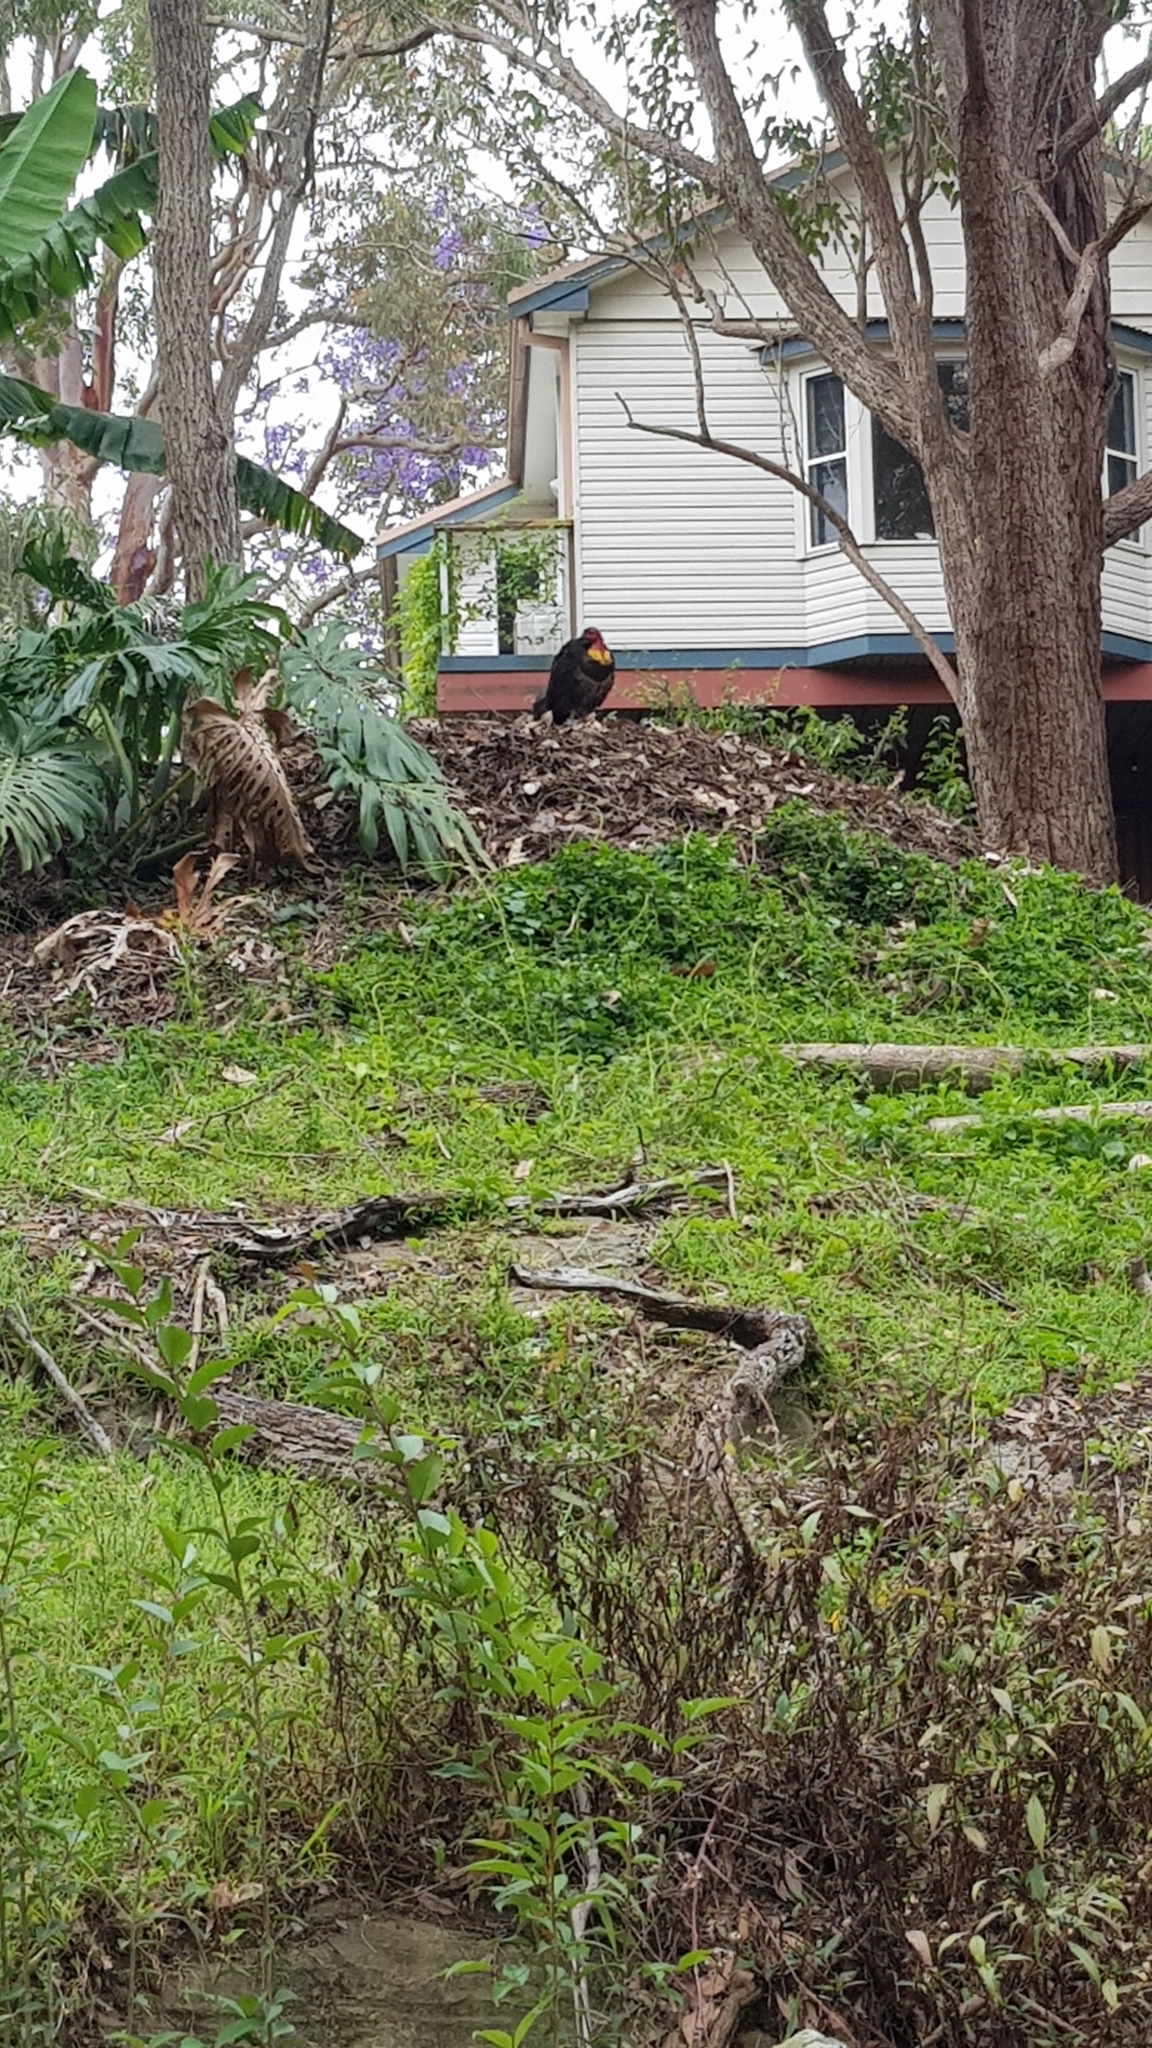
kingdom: Animalia
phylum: Chordata
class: Aves
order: Galliformes
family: Megapodiidae
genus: Alectura
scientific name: Alectura lathami
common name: Australian brushturkey
